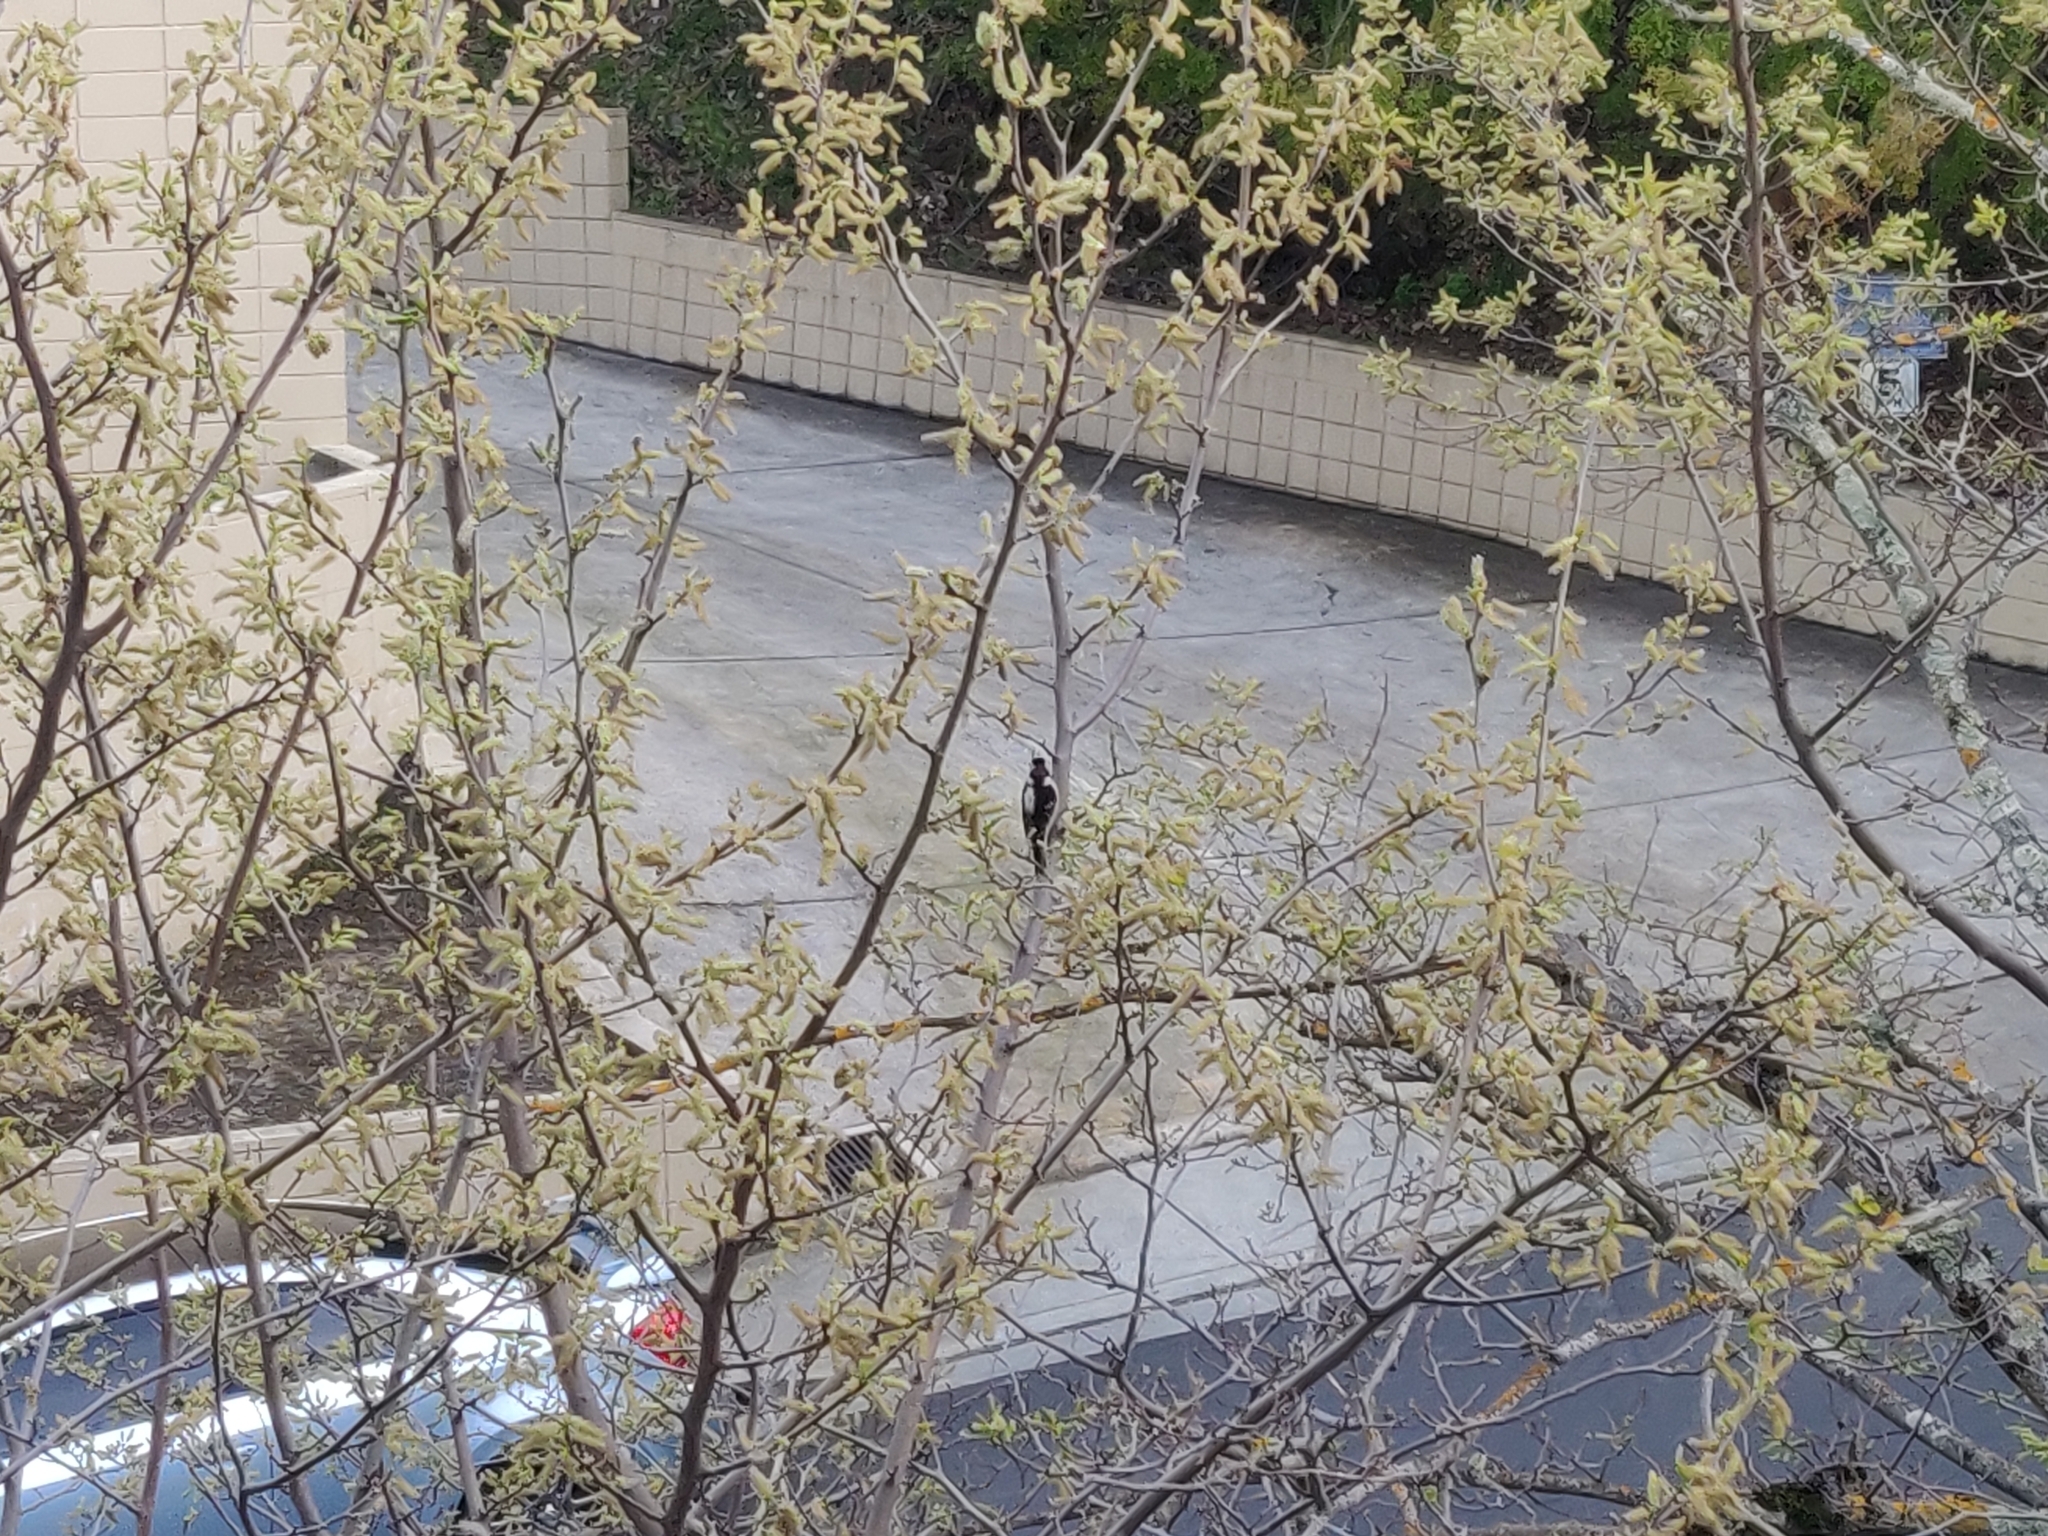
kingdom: Animalia
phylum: Chordata
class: Aves
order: Piciformes
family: Picidae
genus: Dryobates
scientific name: Dryobates pubescens
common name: Downy woodpecker
